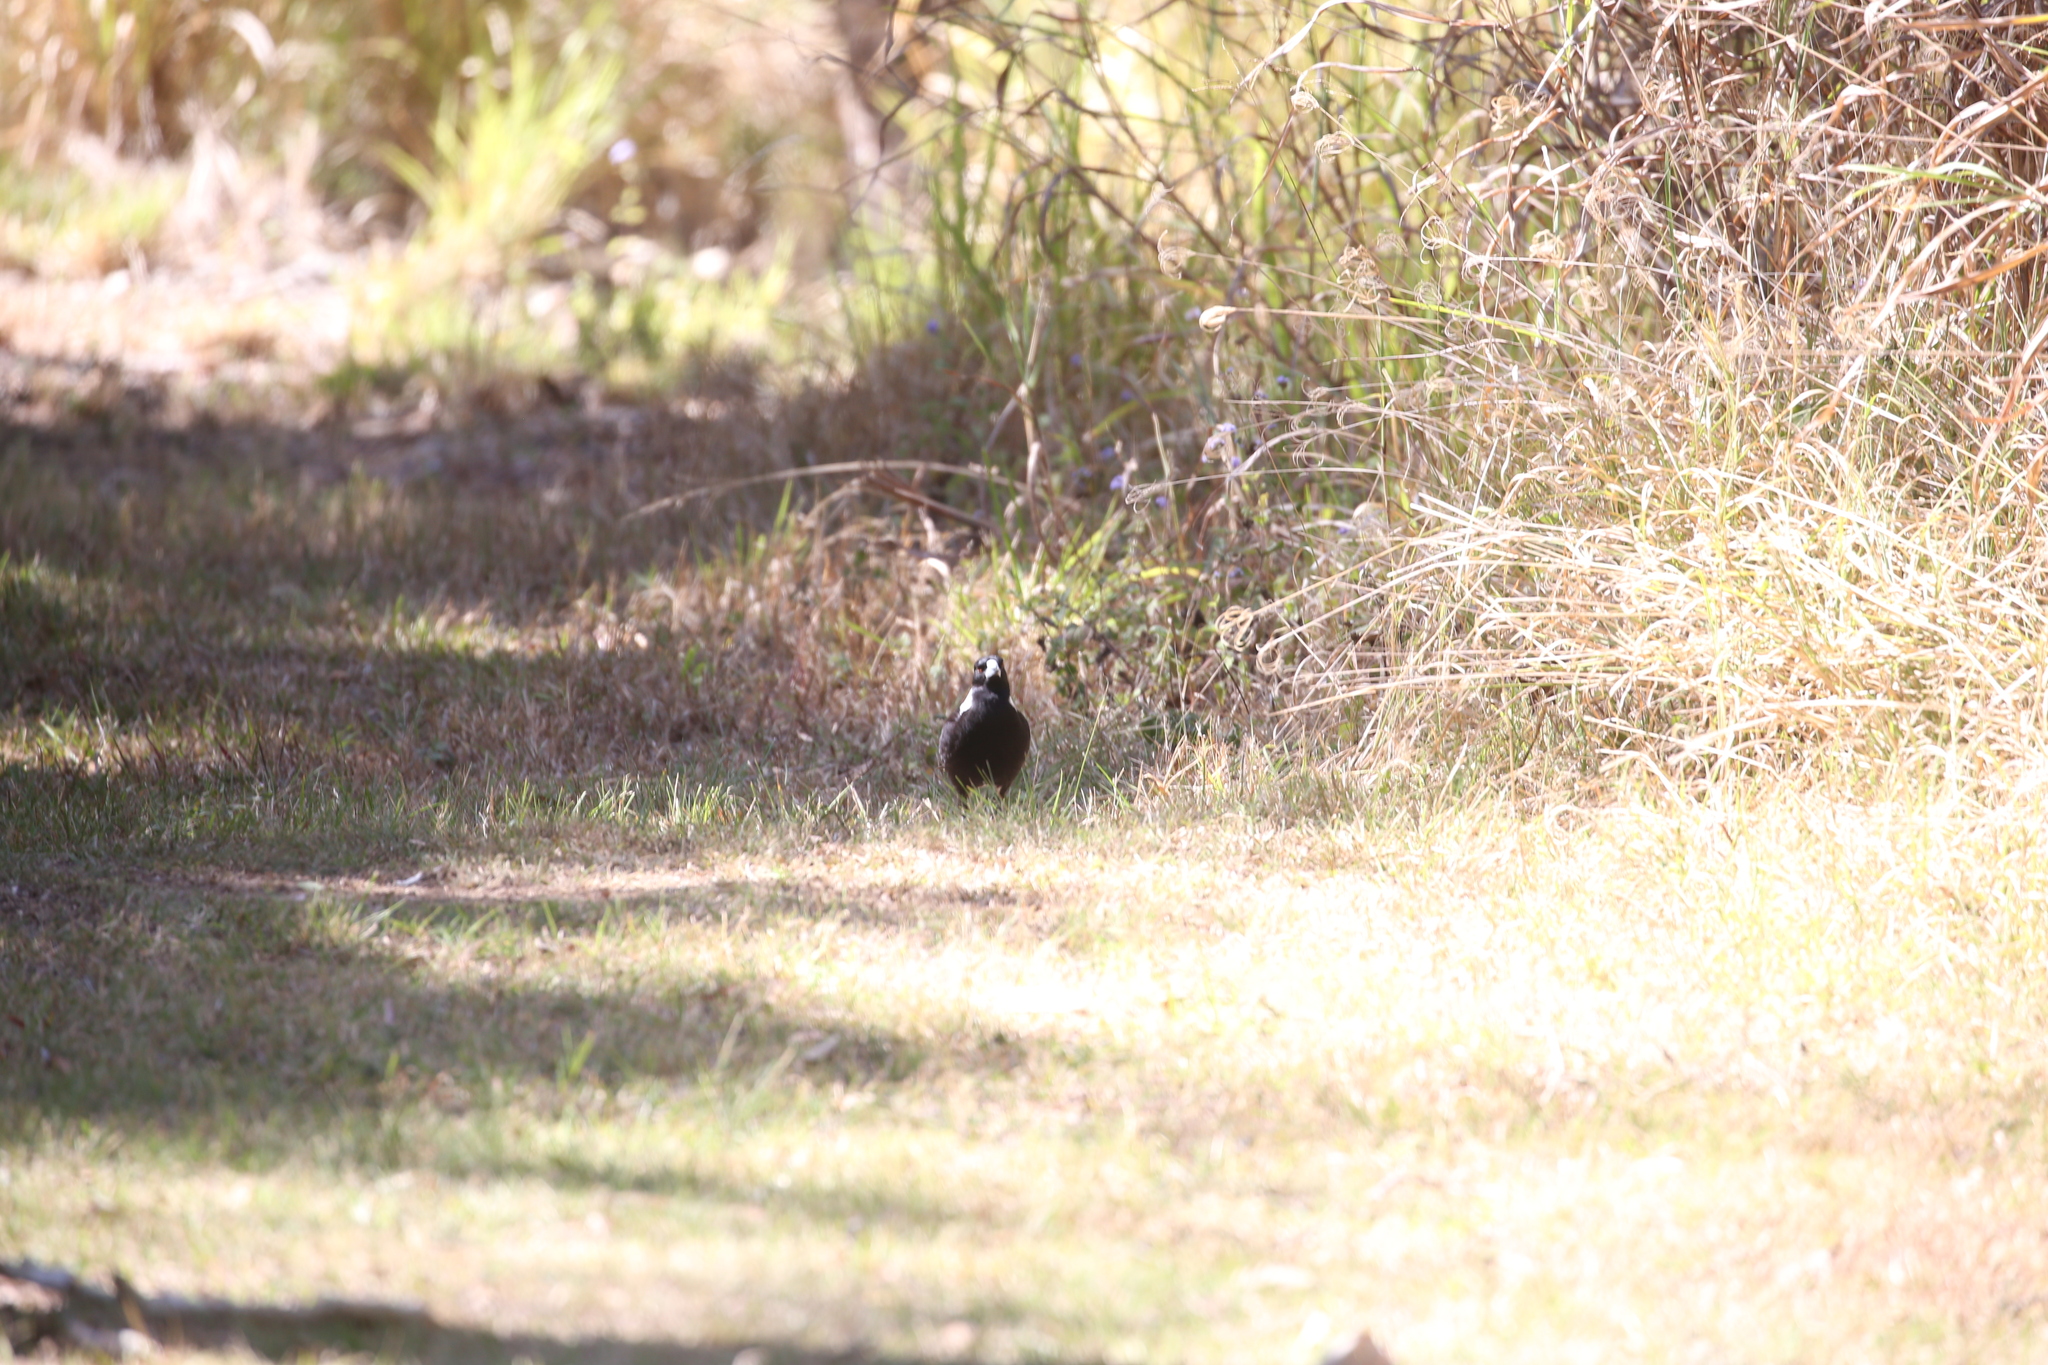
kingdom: Animalia
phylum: Chordata
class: Aves
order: Passeriformes
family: Cracticidae
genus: Gymnorhina
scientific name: Gymnorhina tibicen
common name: Australian magpie
